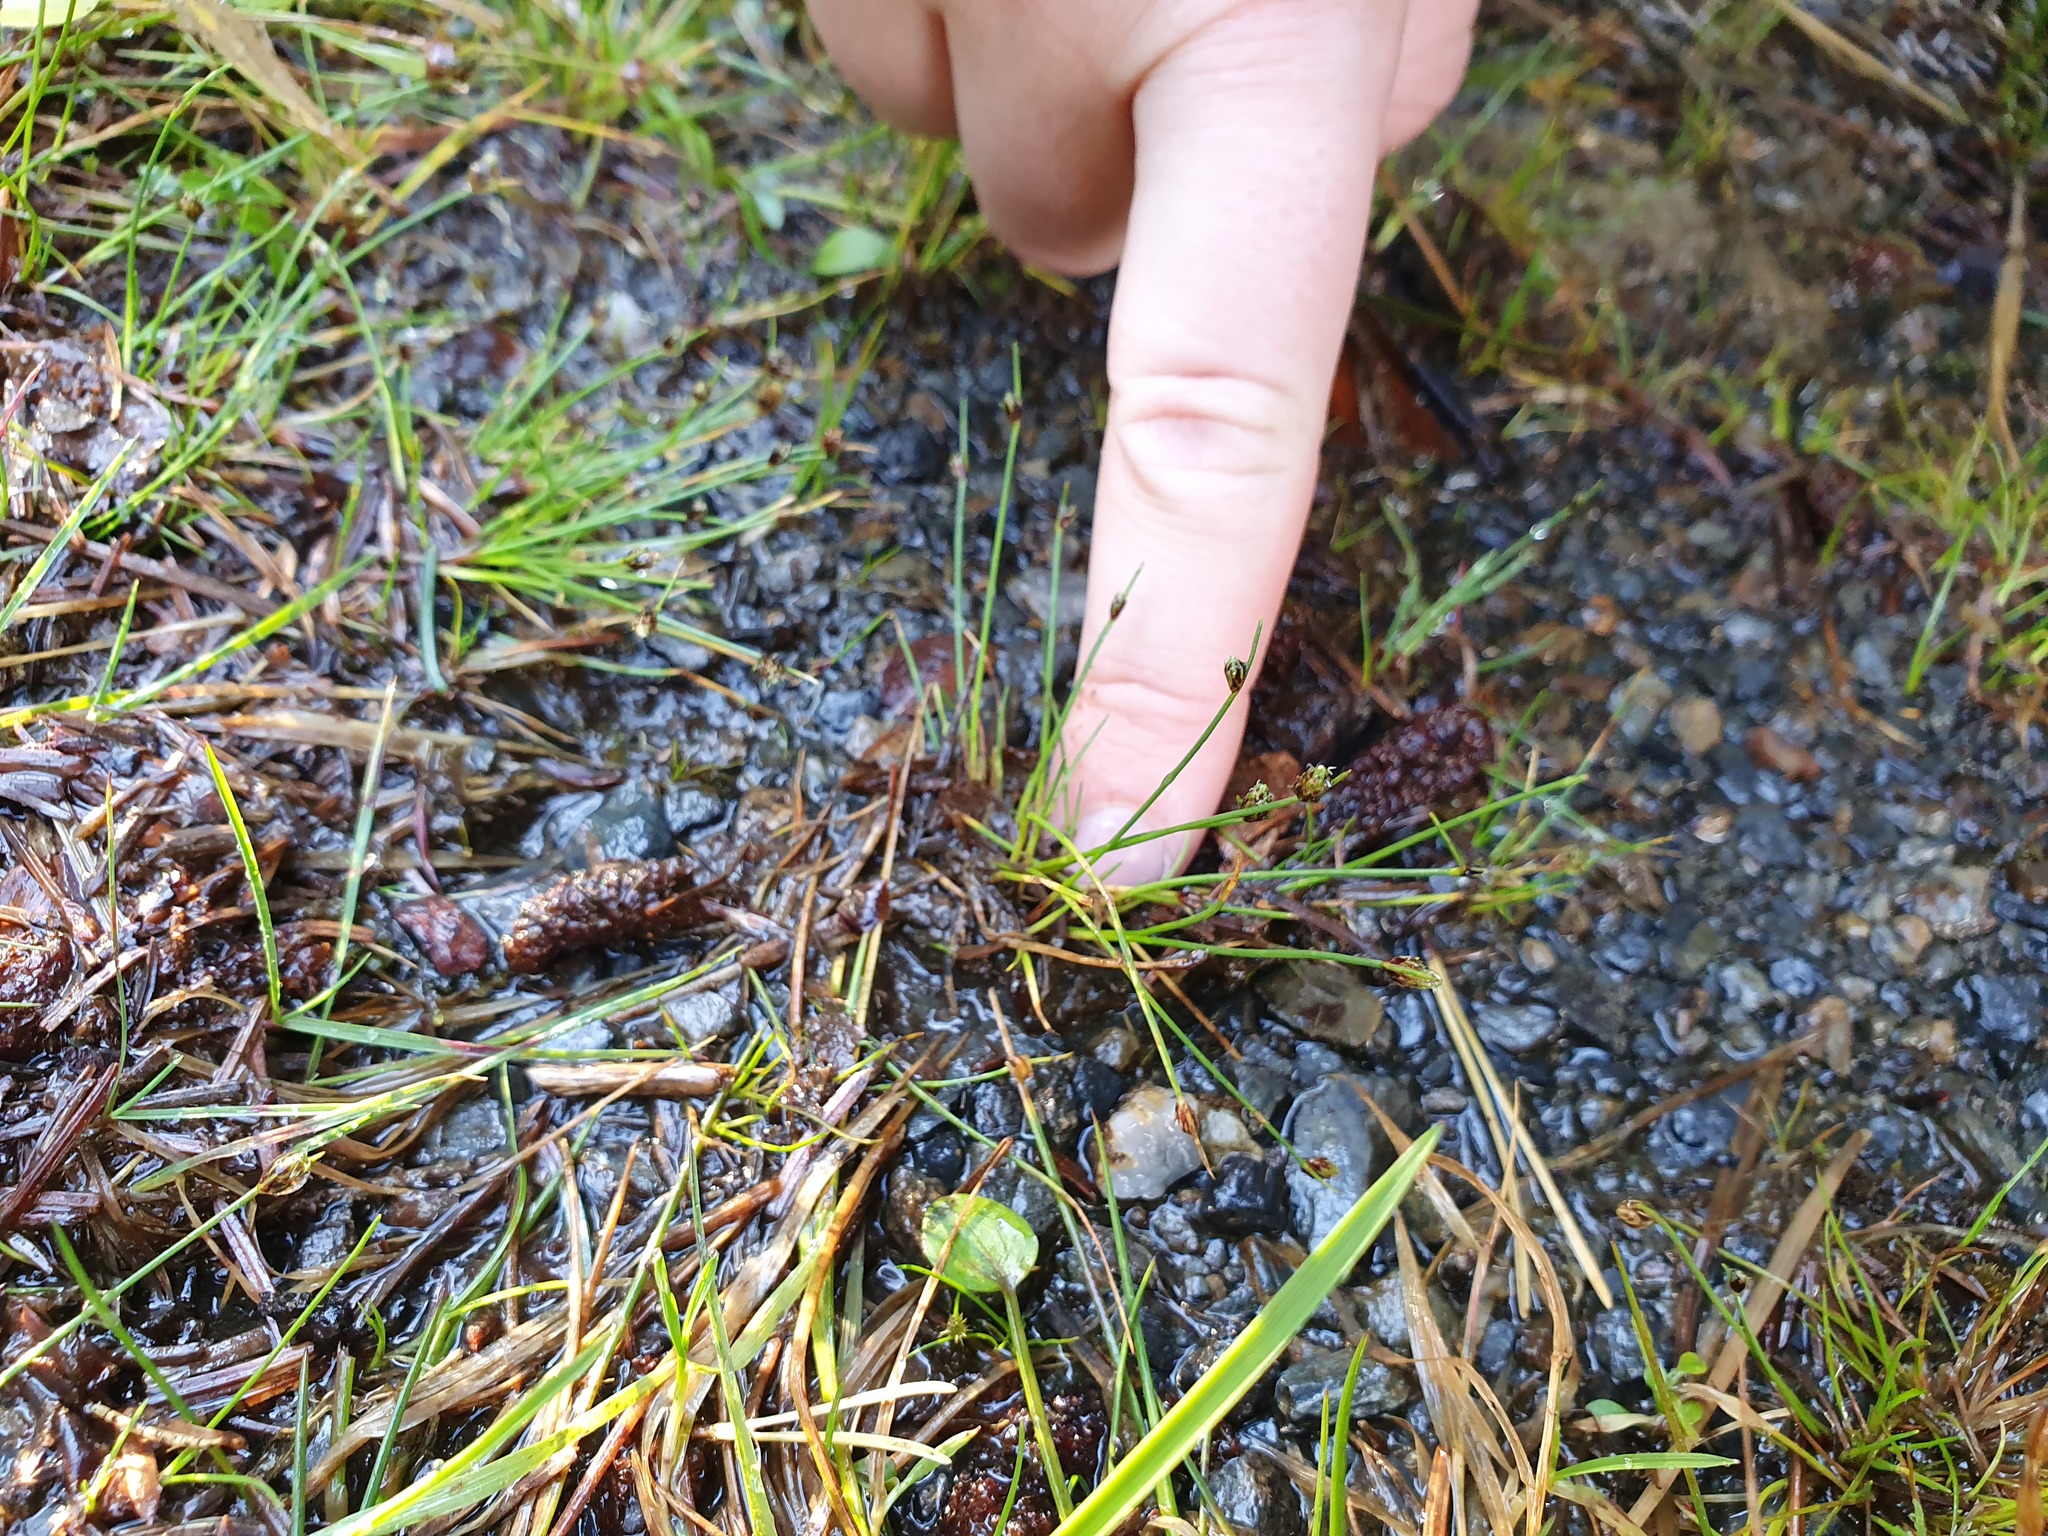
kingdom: Plantae
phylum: Tracheophyta
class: Liliopsida
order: Poales
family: Cyperaceae
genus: Isolepis
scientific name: Isolepis setacea
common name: Bristle club-rush
